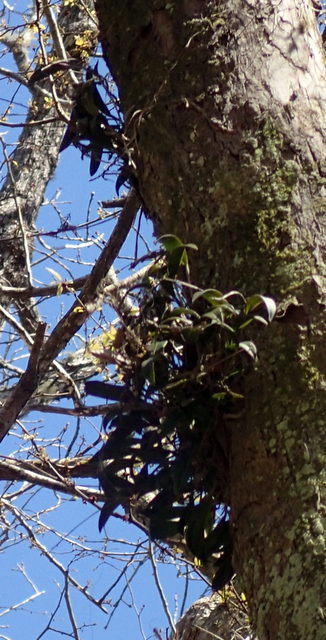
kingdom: Plantae
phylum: Tracheophyta
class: Liliopsida
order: Asparagales
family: Orchidaceae
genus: Epidendrum
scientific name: Epidendrum conopseum
